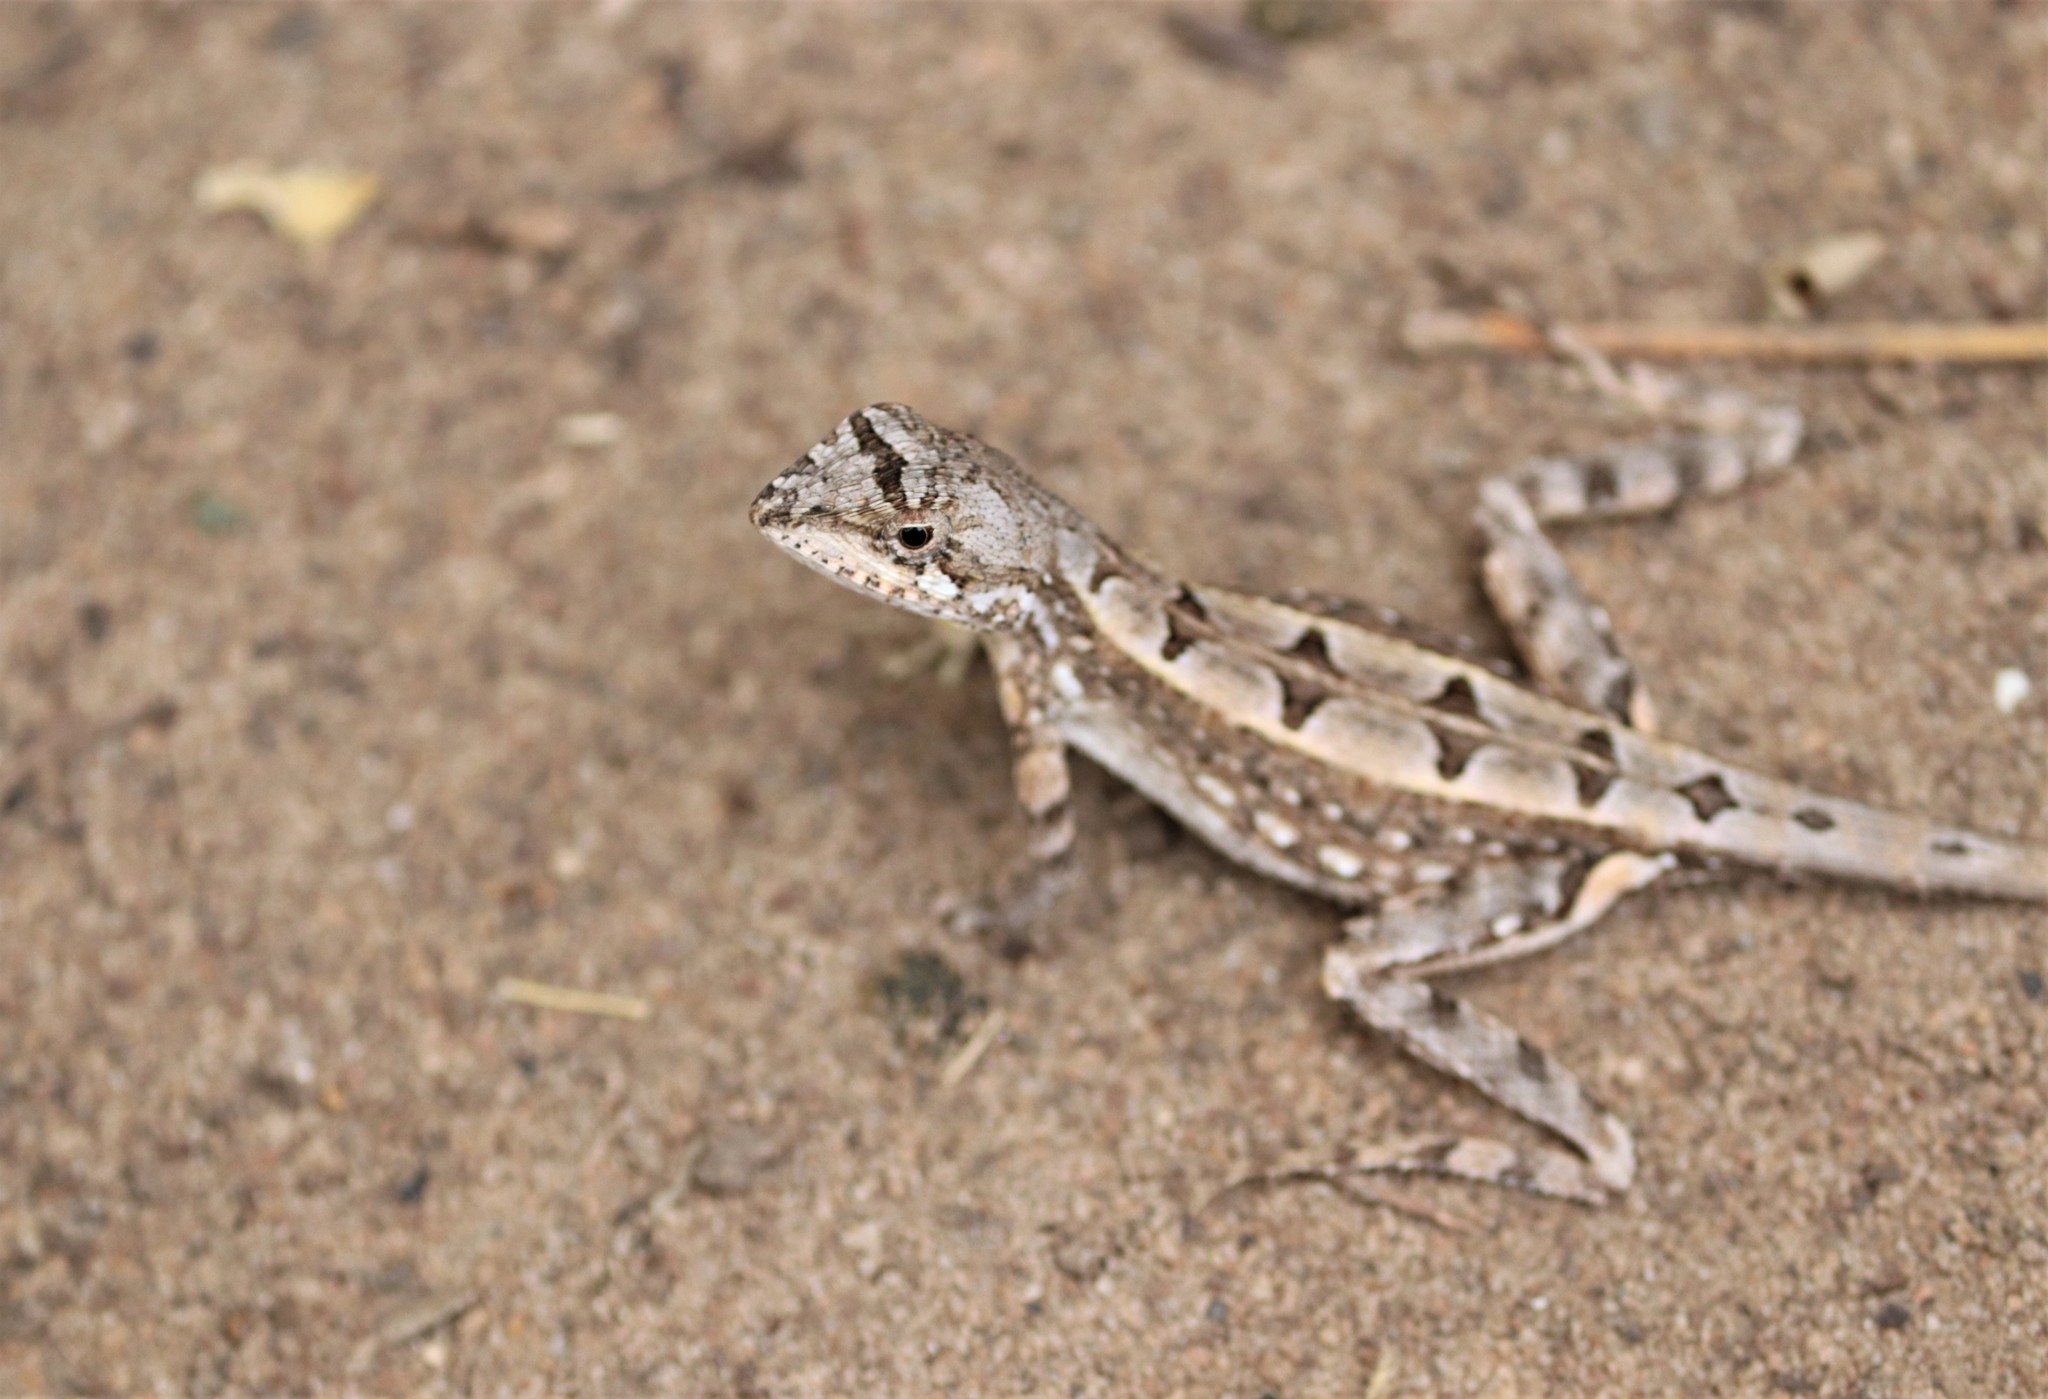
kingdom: Animalia
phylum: Chordata
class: Squamata
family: Agamidae
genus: Sitana
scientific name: Sitana devakai
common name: Devaka’s fan-throated lizard
